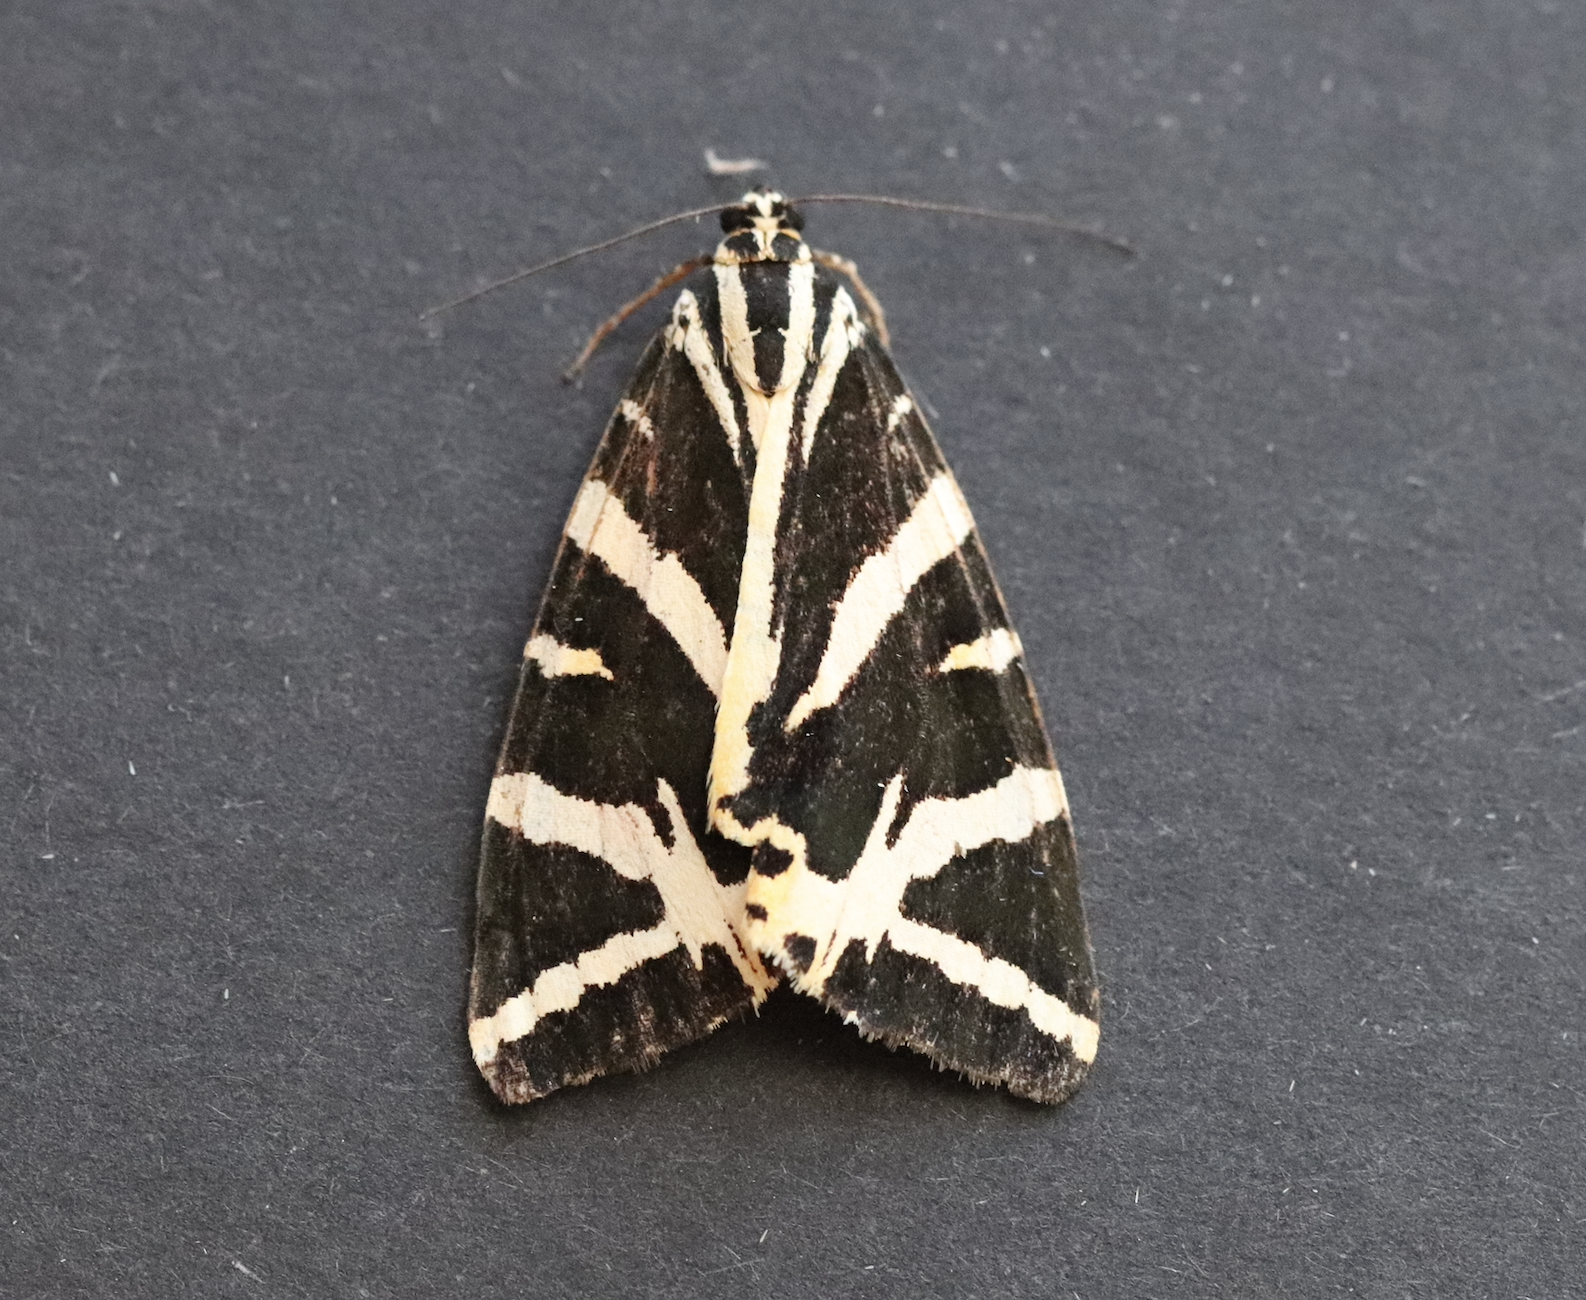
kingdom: Animalia
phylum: Arthropoda
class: Insecta
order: Lepidoptera
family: Erebidae
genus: Euplagia
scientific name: Euplagia quadripunctaria
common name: Jersey tiger
